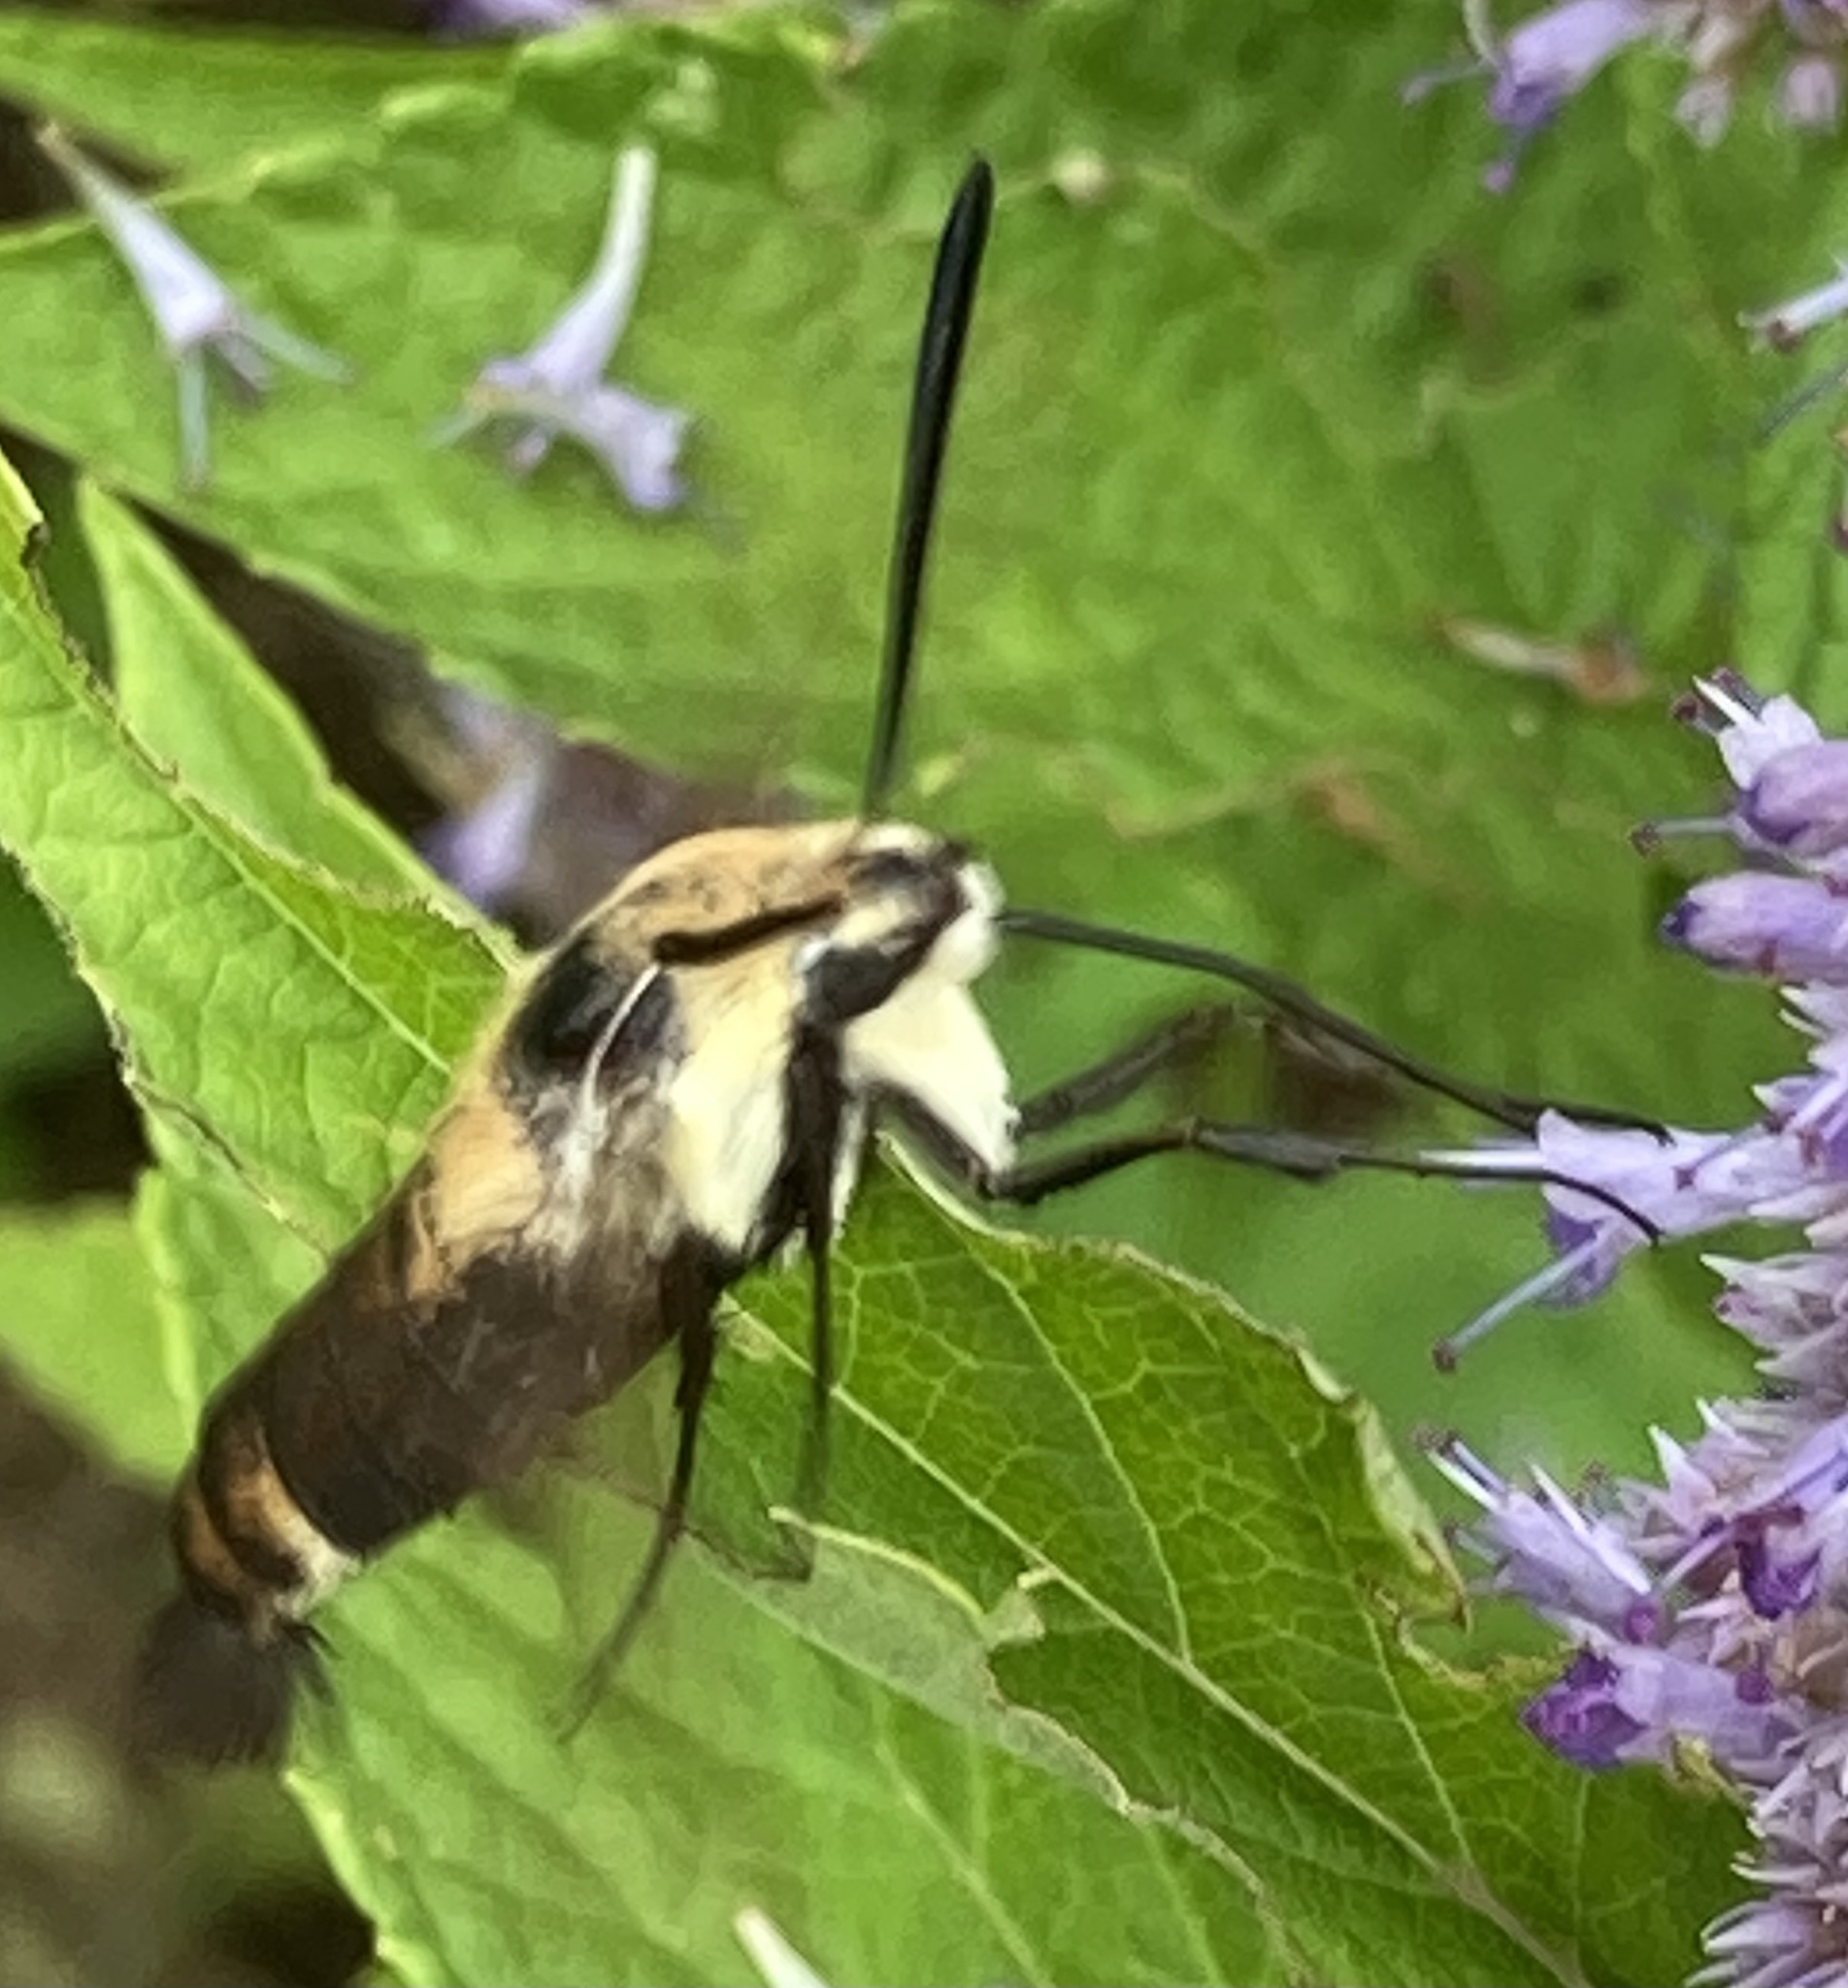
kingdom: Animalia
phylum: Arthropoda
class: Insecta
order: Lepidoptera
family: Sphingidae
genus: Hemaris
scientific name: Hemaris diffinis
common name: Bumblebee moth
